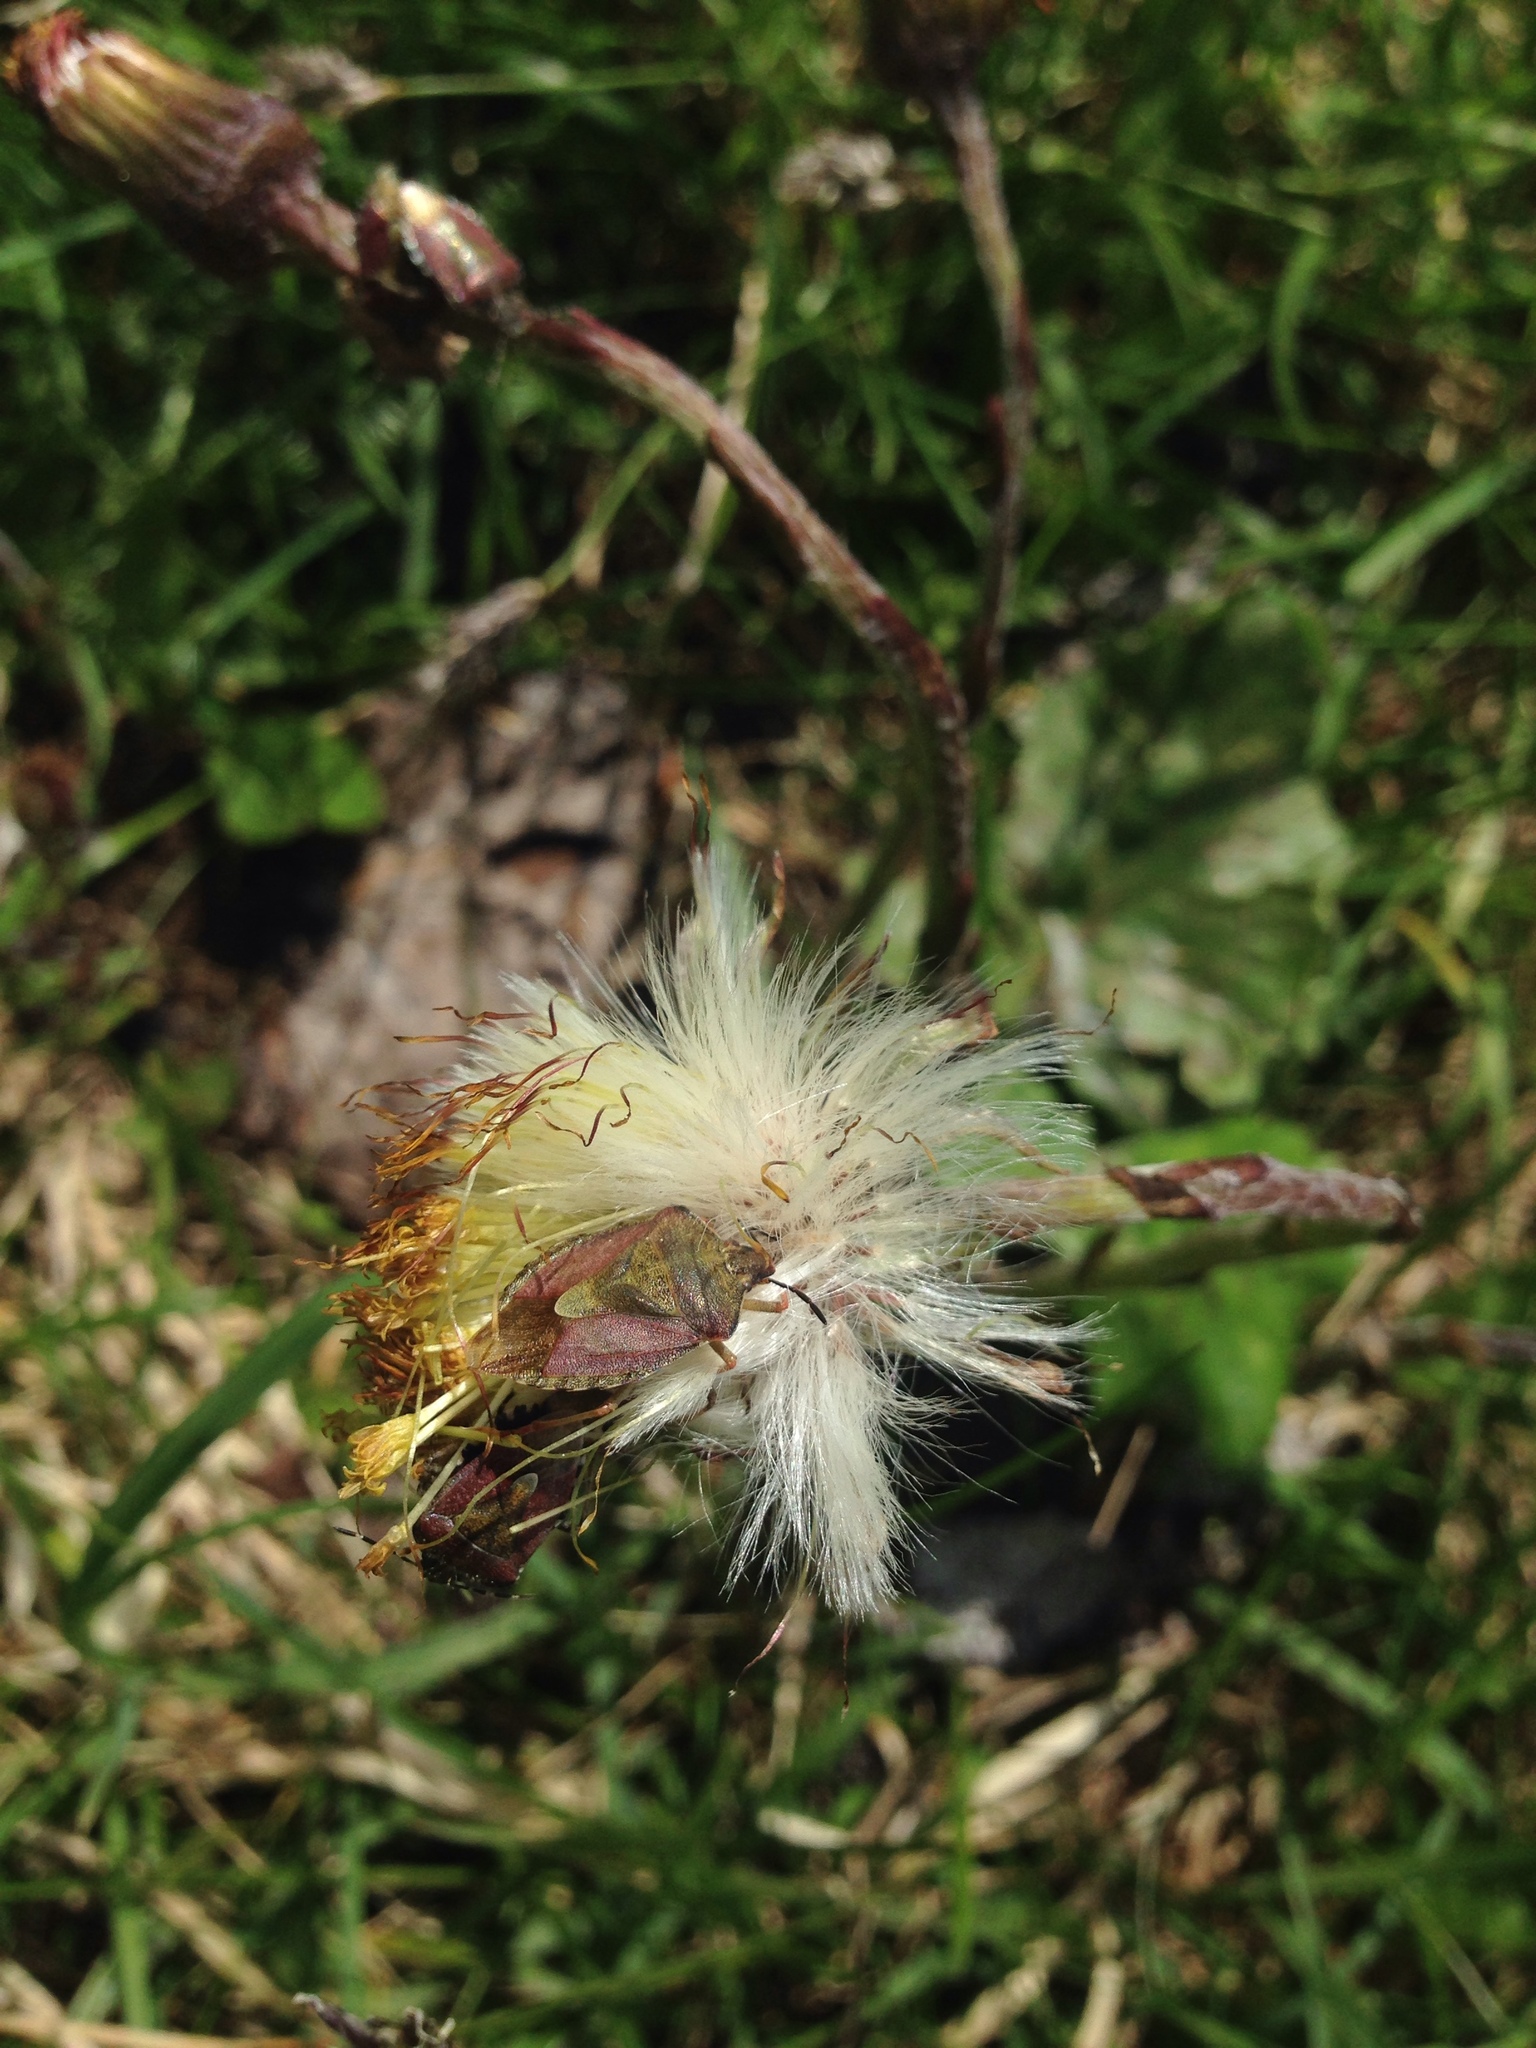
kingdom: Animalia
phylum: Arthropoda
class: Insecta
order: Hemiptera
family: Pentatomidae
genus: Carpocoris
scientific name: Carpocoris melanocerus
